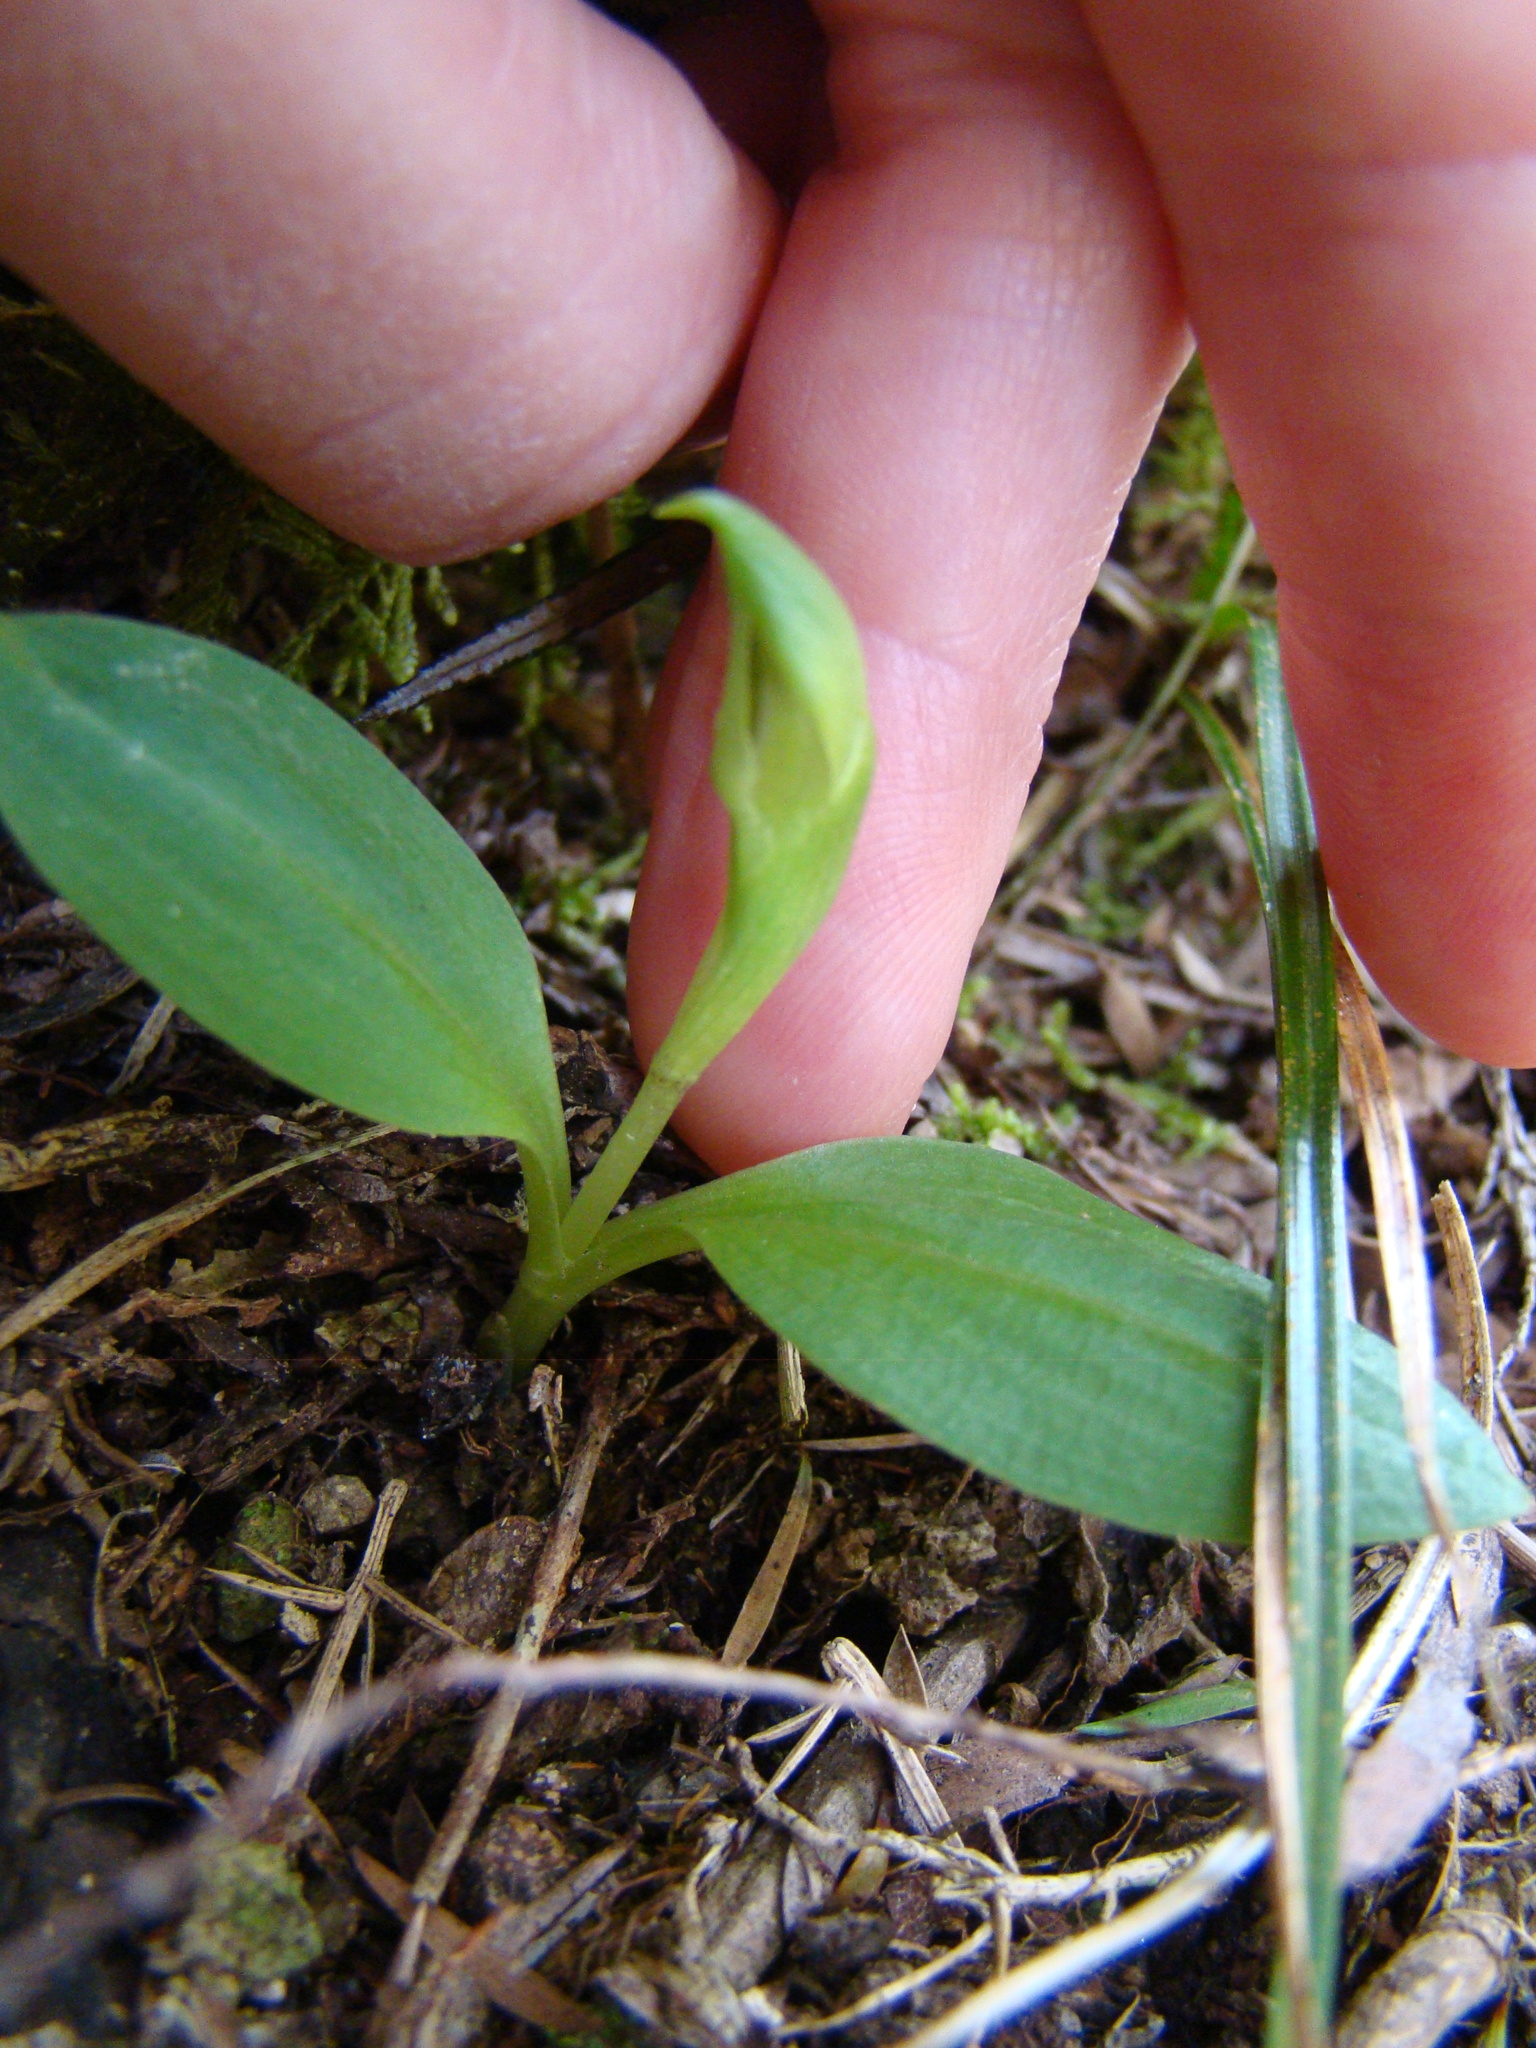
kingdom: Plantae
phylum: Tracheophyta
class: Liliopsida
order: Asparagales
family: Orchidaceae
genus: Chiloglottis
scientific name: Chiloglottis cornuta
